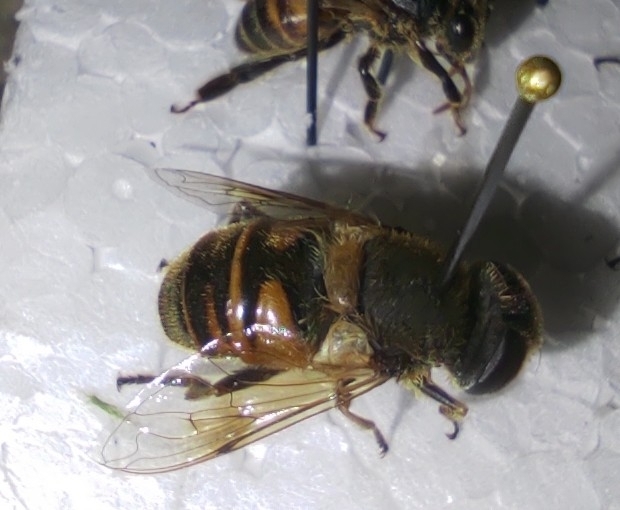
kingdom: Animalia
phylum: Arthropoda
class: Insecta
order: Diptera
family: Syrphidae
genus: Eristalis
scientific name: Eristalis tenax
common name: Drone fly
